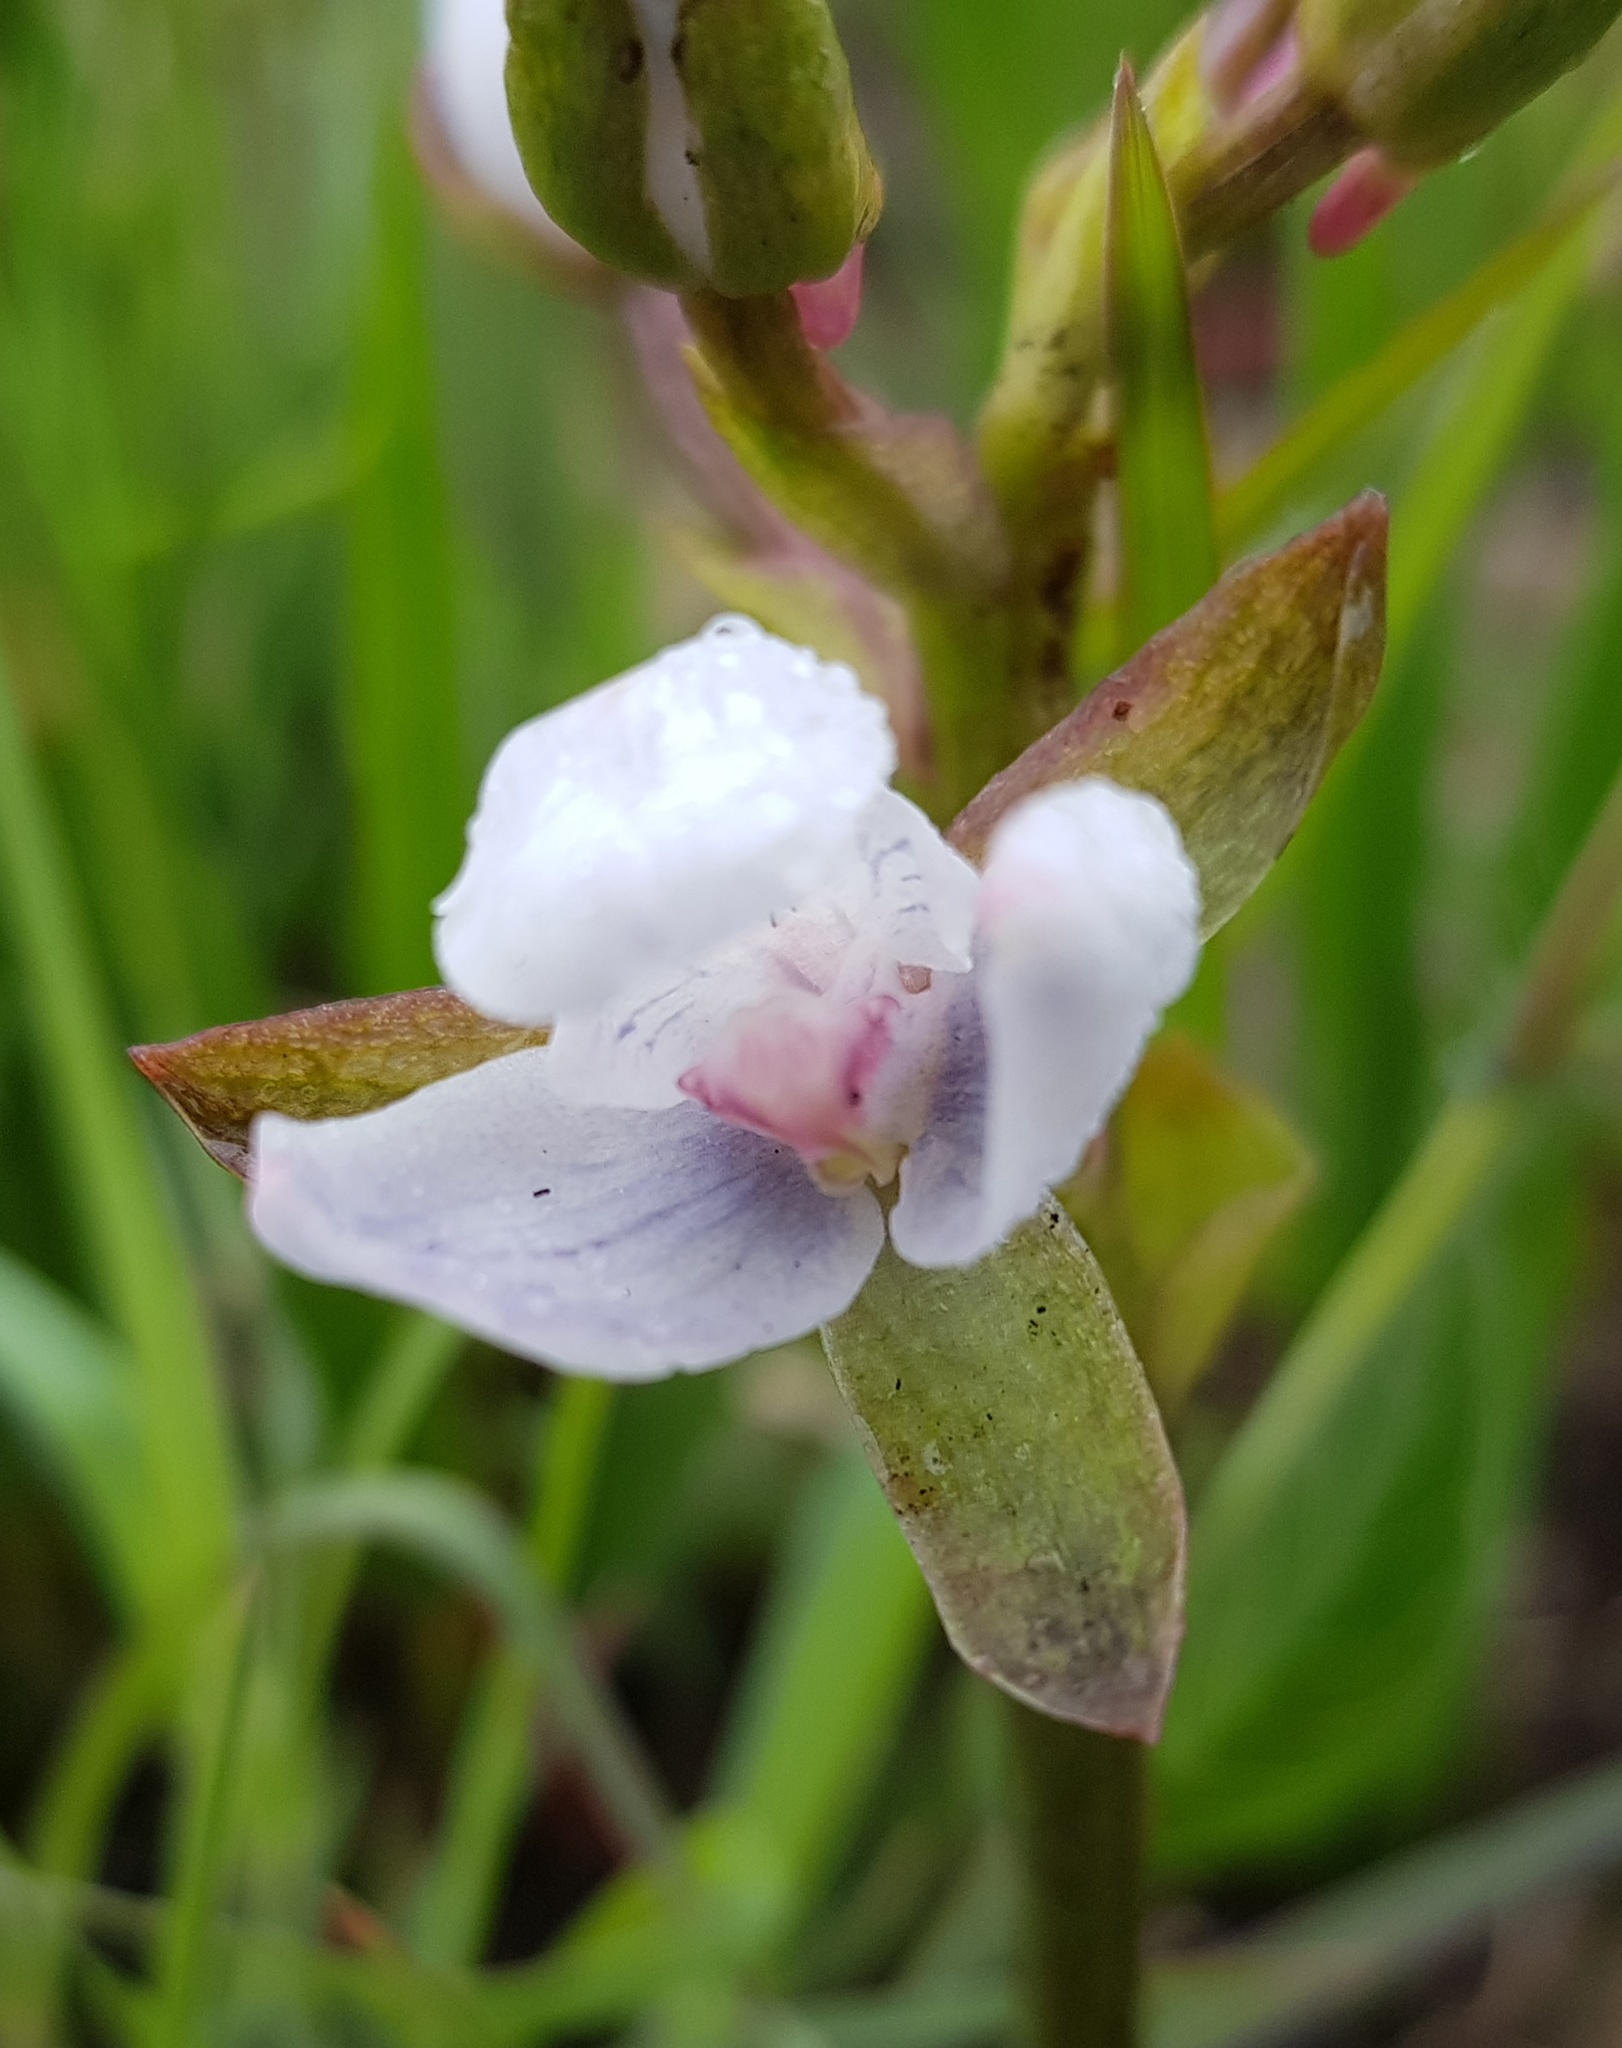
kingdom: Plantae
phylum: Tracheophyta
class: Liliopsida
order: Asparagales
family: Orchidaceae
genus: Eulophia
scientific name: Eulophia zeyheriana
